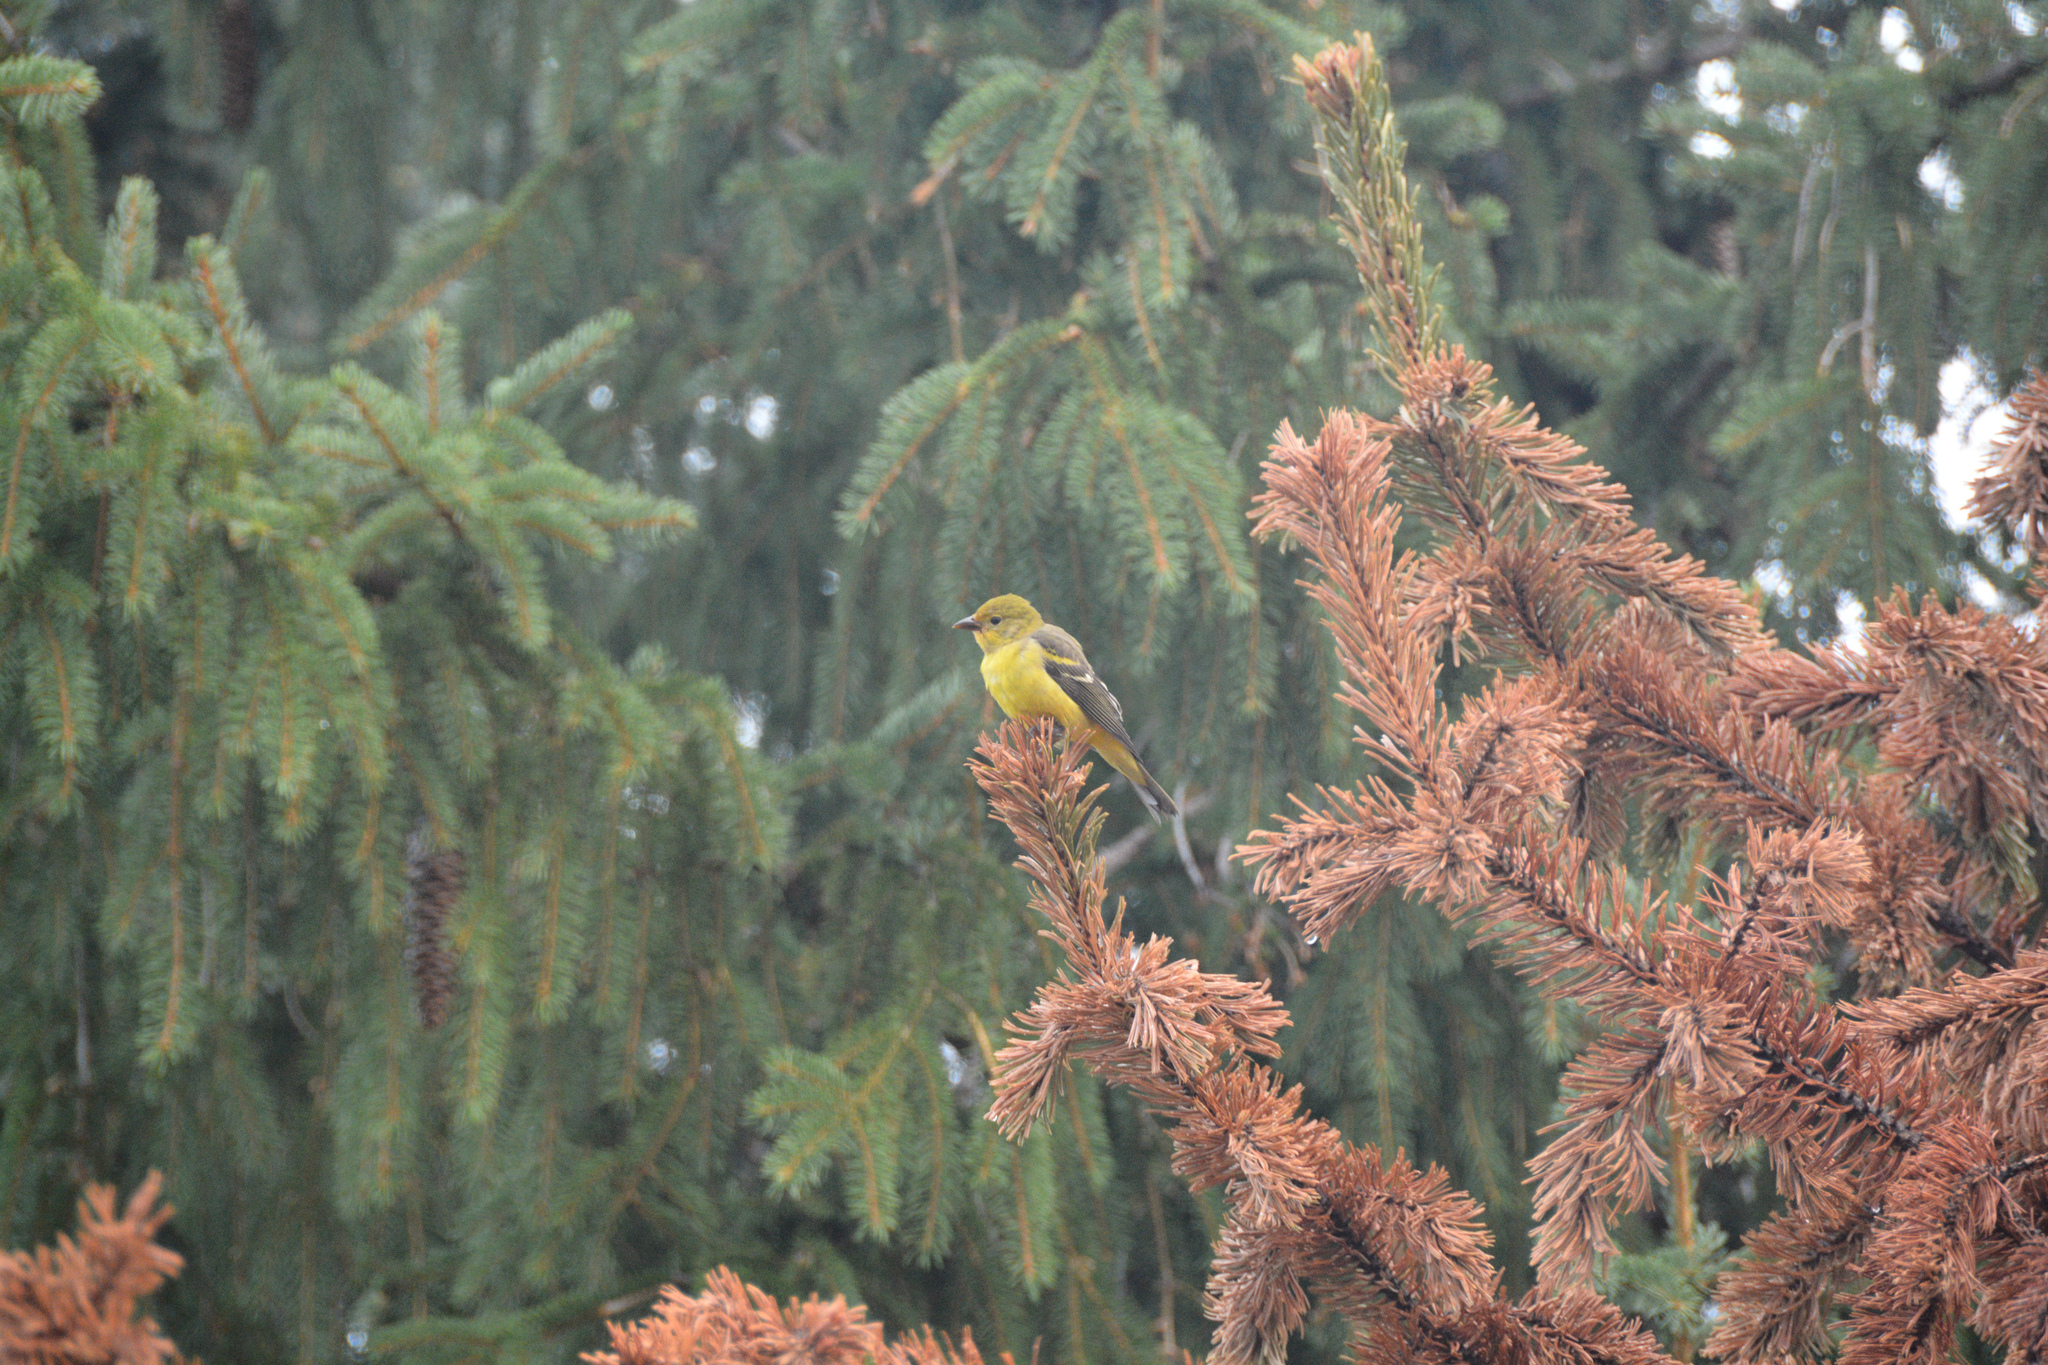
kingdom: Animalia
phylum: Chordata
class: Aves
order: Passeriformes
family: Cardinalidae
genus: Piranga
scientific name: Piranga ludoviciana
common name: Western tanager
